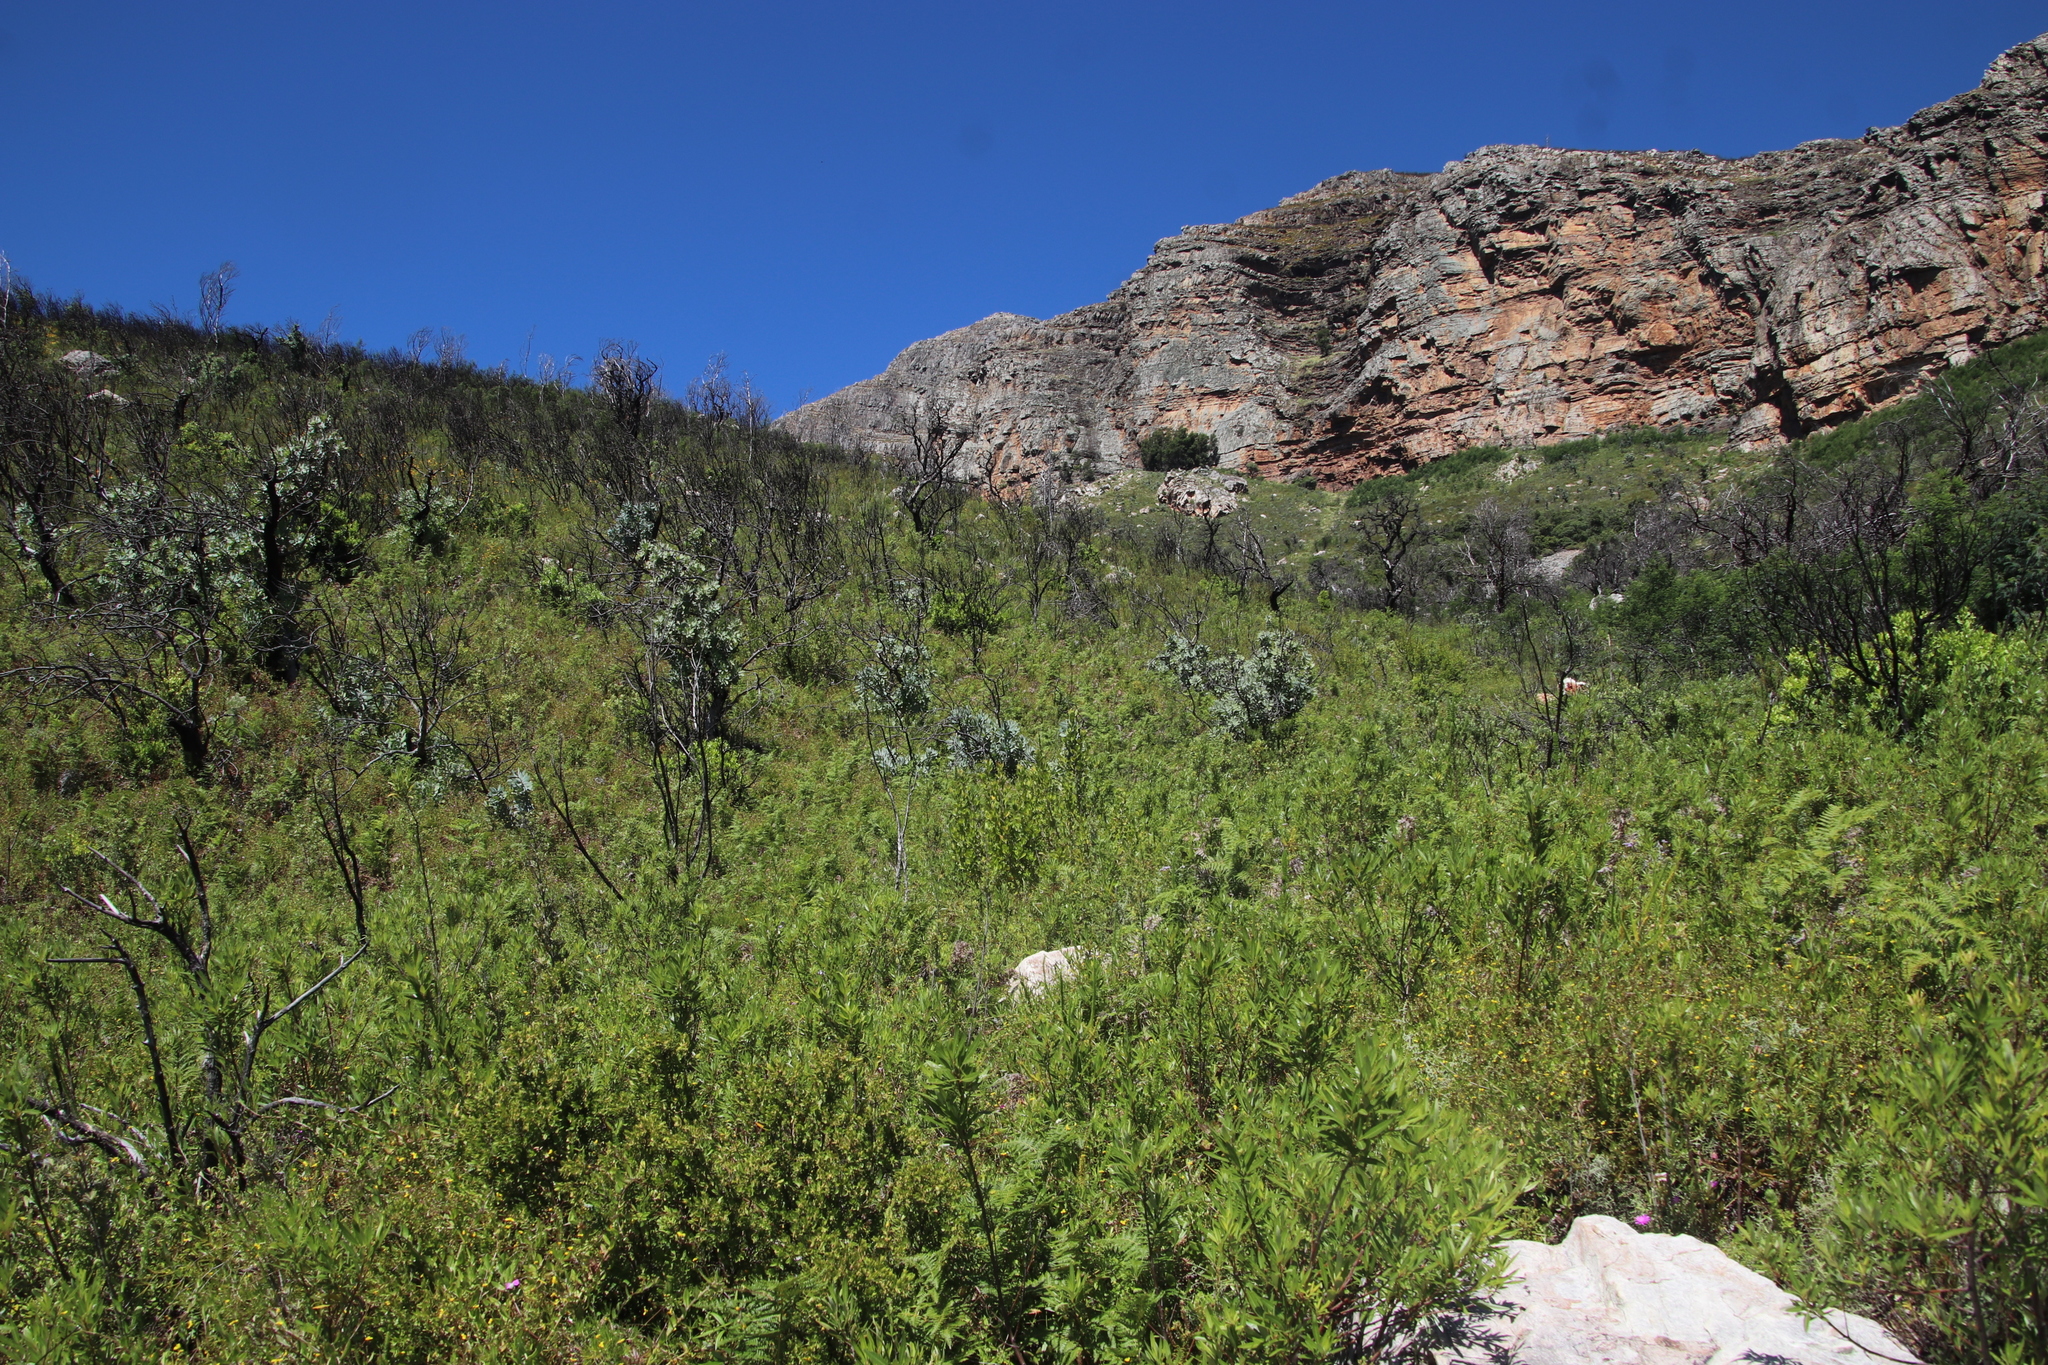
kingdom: Plantae
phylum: Tracheophyta
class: Polypodiopsida
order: Polypodiales
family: Dennstaedtiaceae
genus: Pteridium
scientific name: Pteridium aquilinum
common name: Bracken
